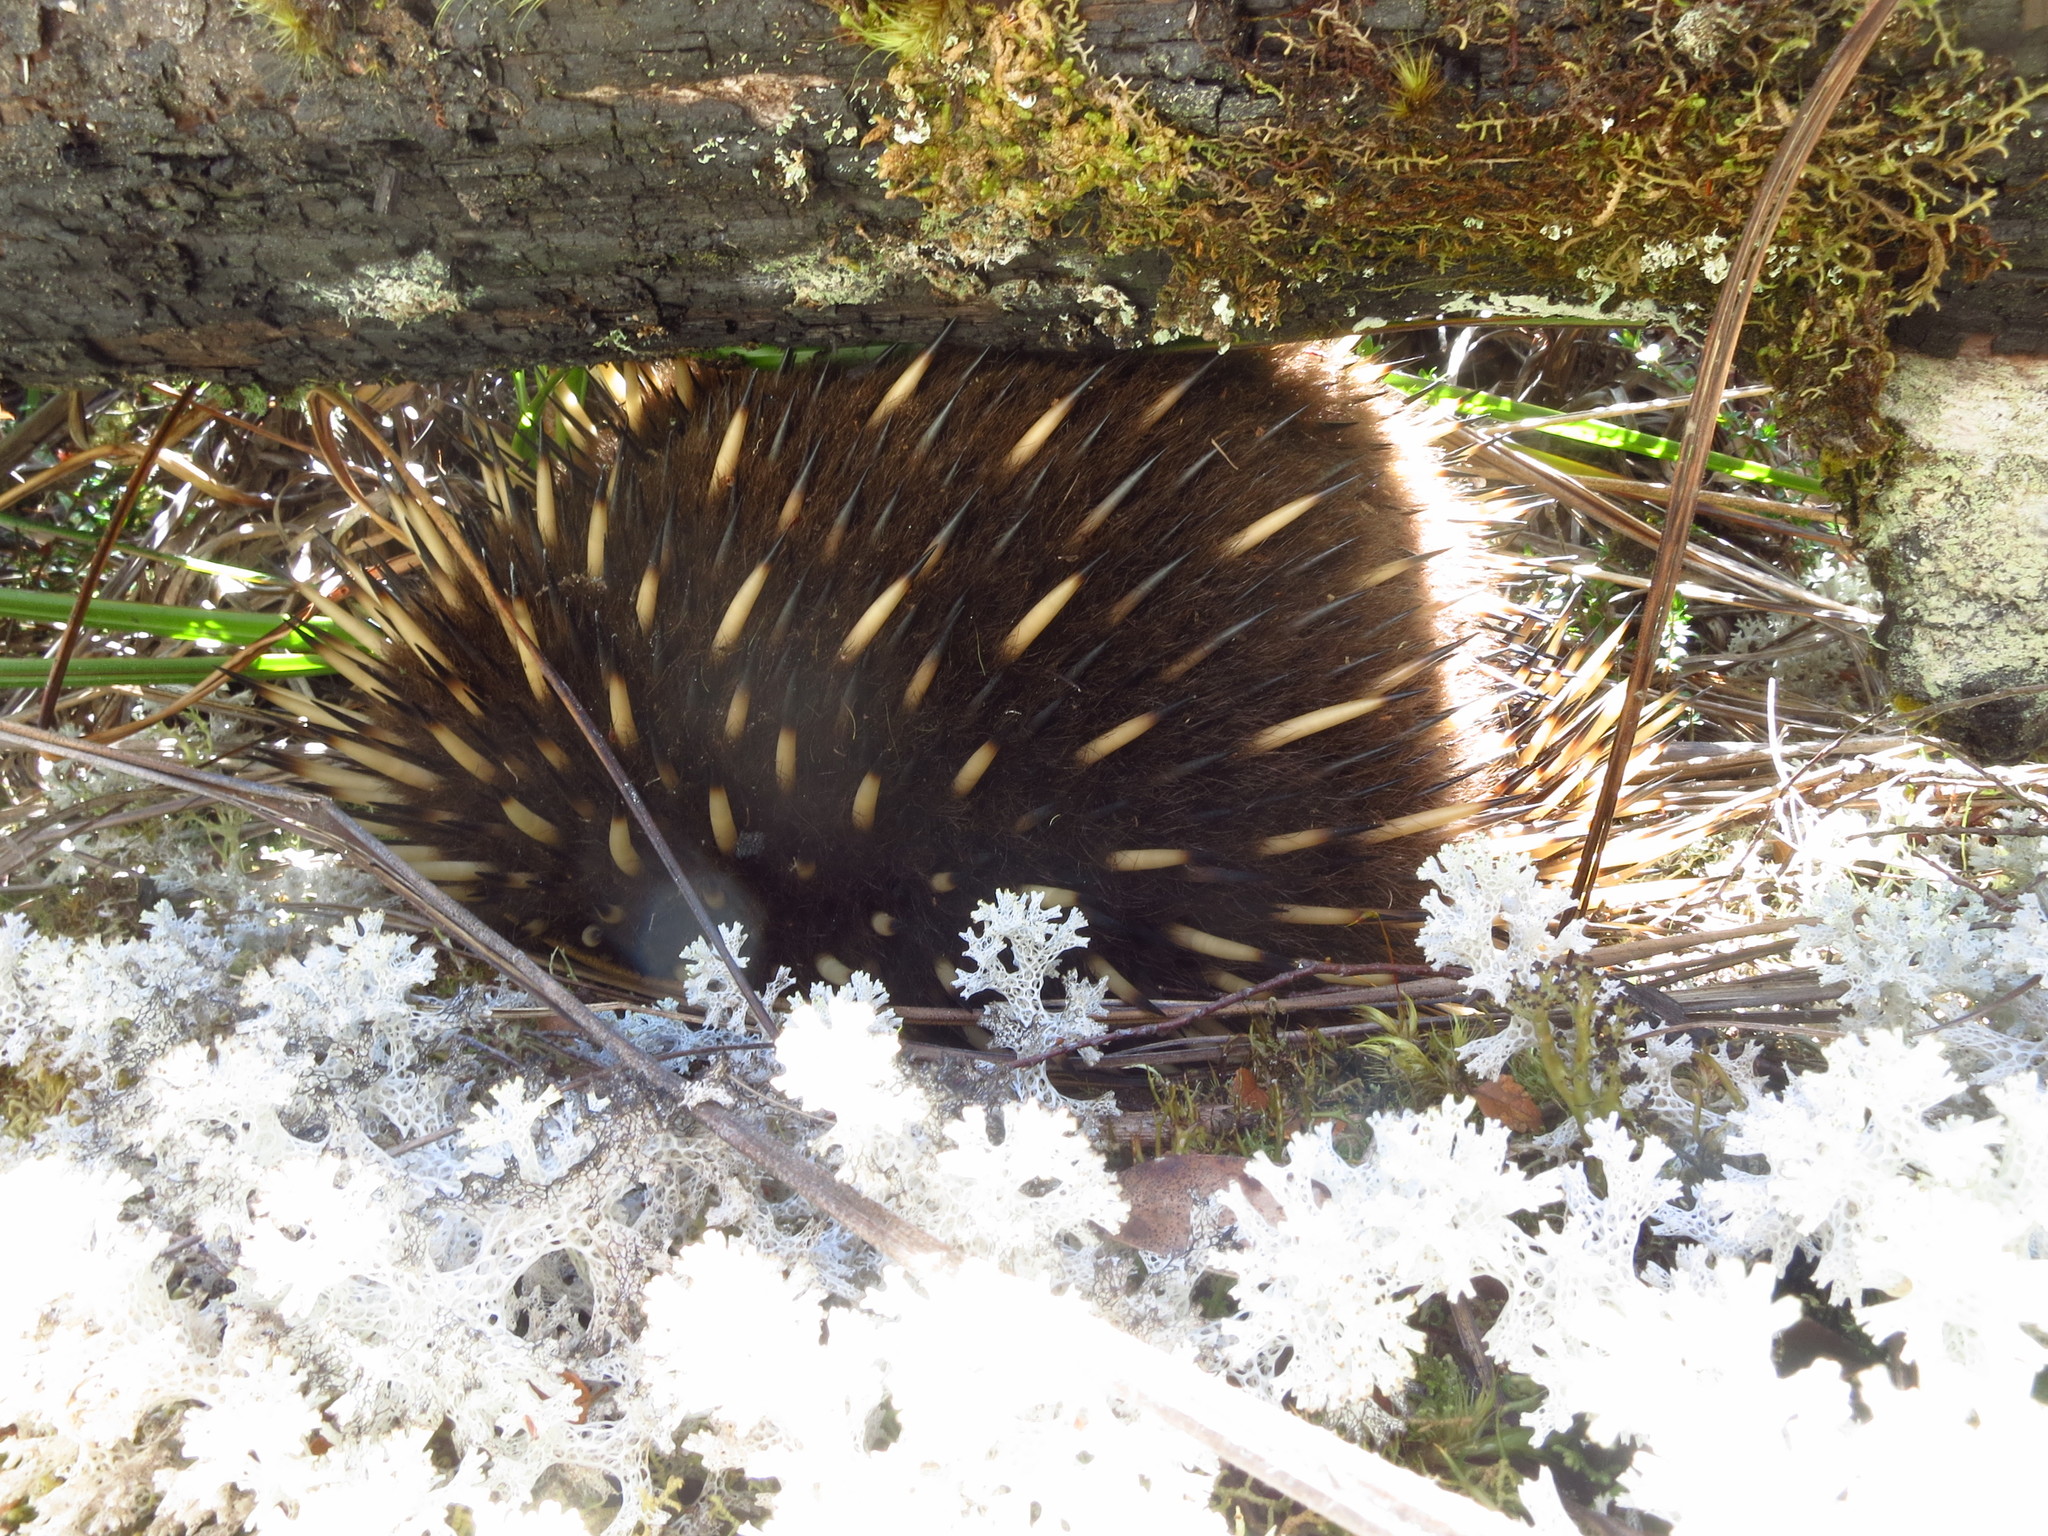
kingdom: Animalia
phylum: Chordata
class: Mammalia
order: Monotremata
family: Tachyglossidae
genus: Tachyglossus
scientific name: Tachyglossus aculeatus
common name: Short-beaked echidna
